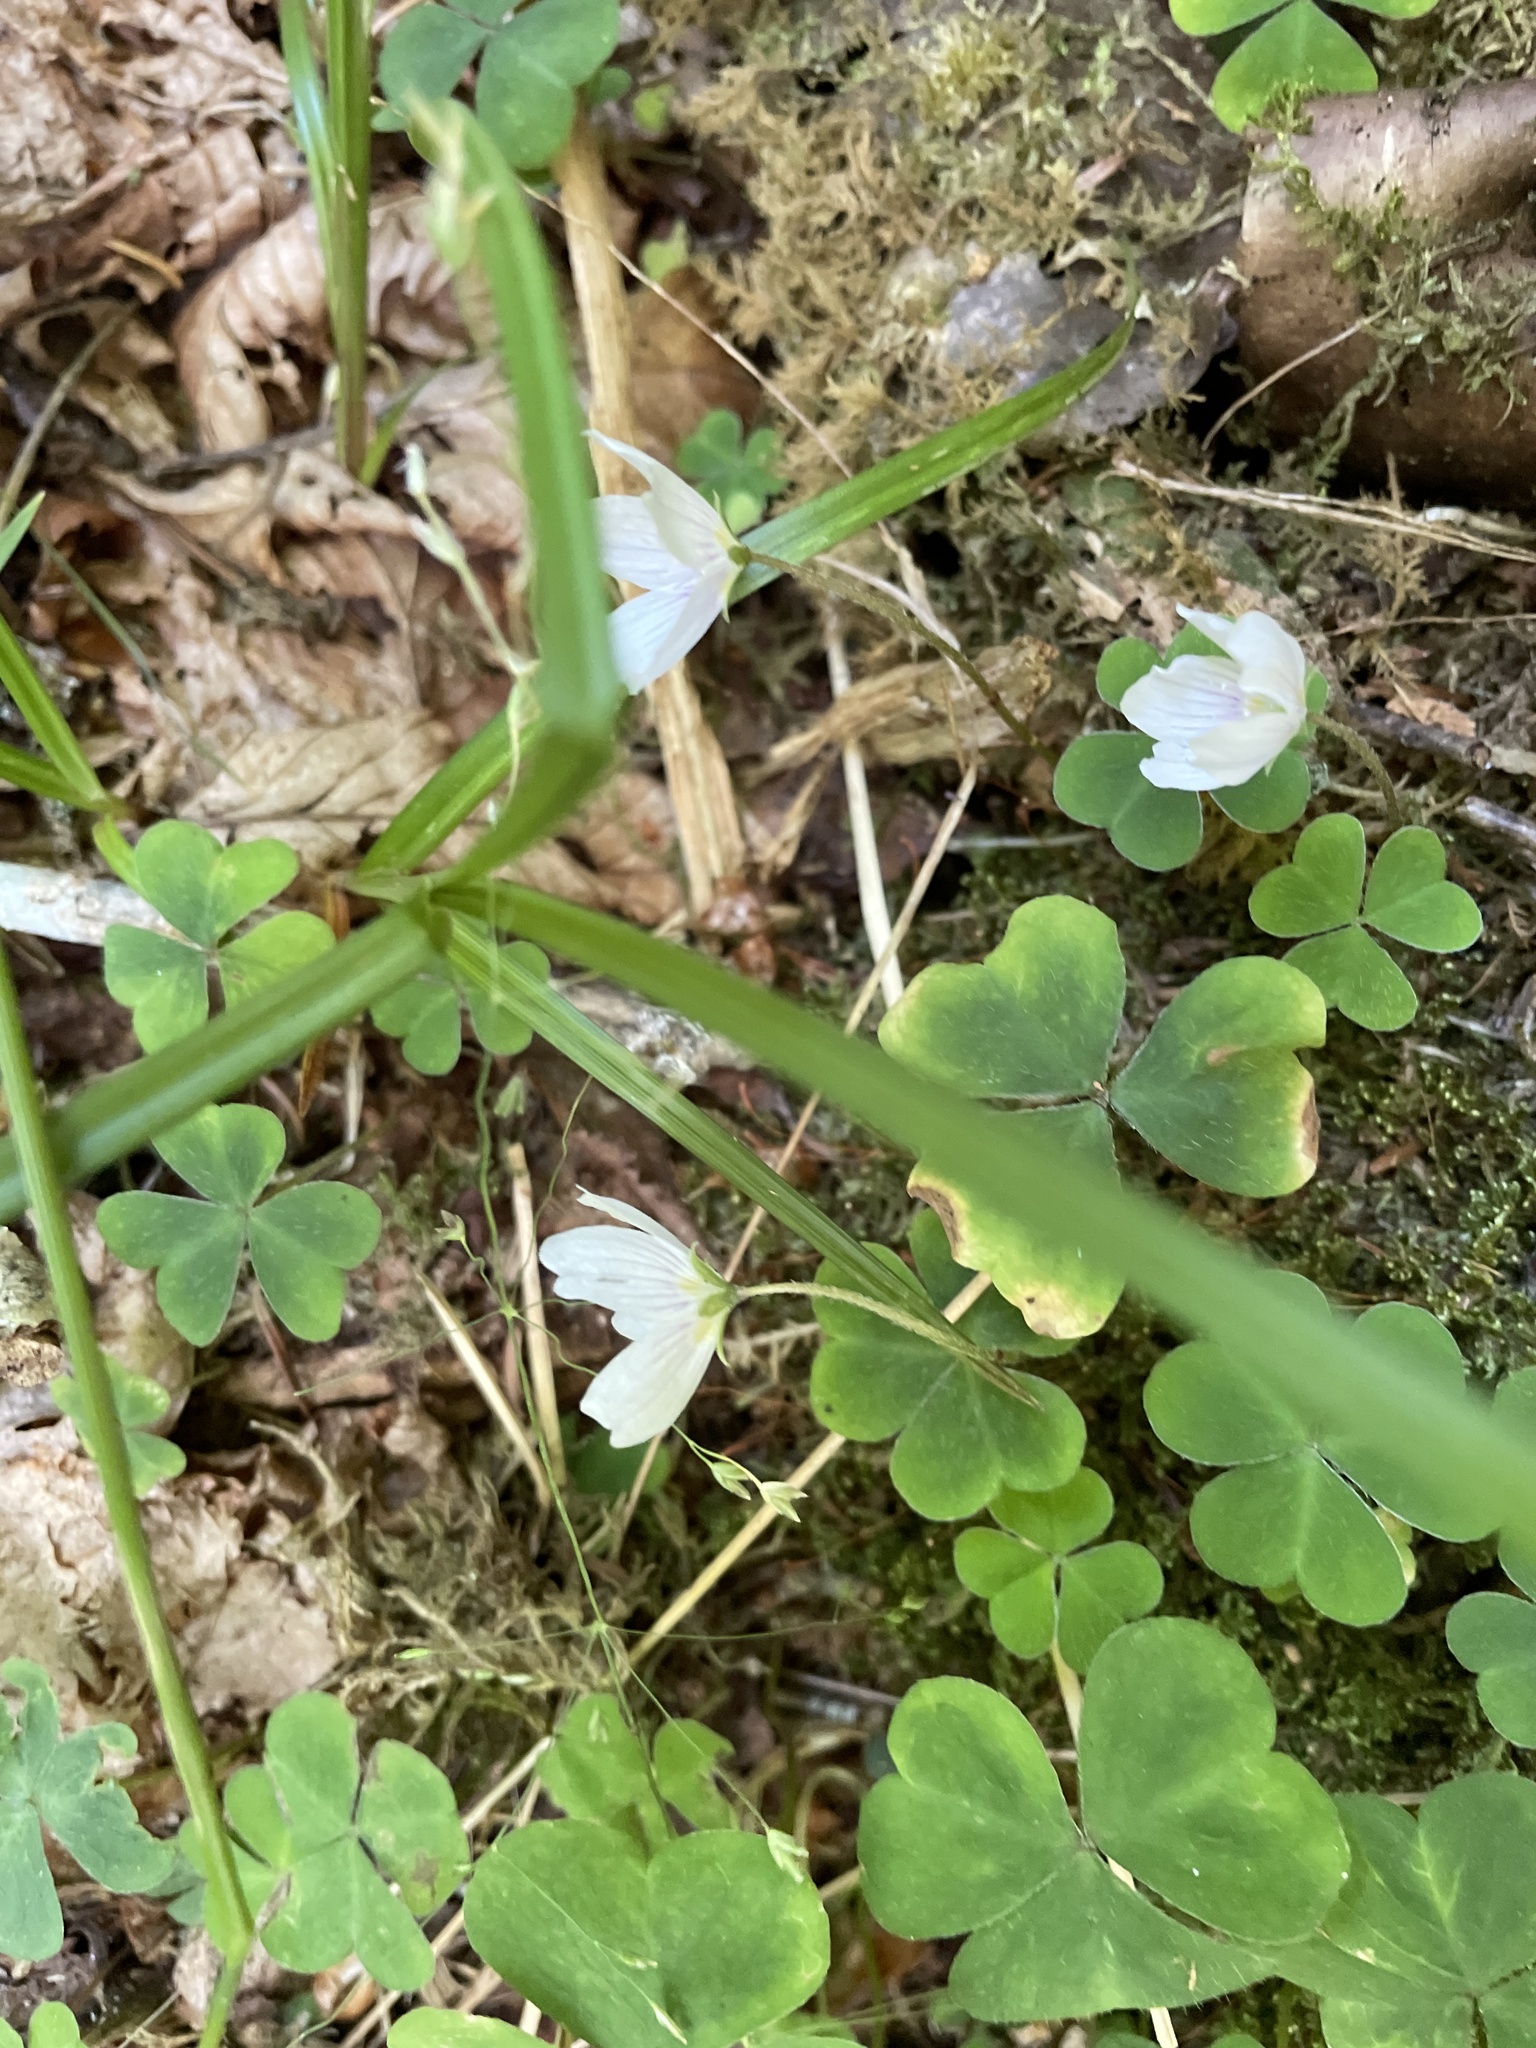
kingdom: Plantae
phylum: Tracheophyta
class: Magnoliopsida
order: Oxalidales
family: Oxalidaceae
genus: Oxalis
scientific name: Oxalis montana
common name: American wood-sorrel
